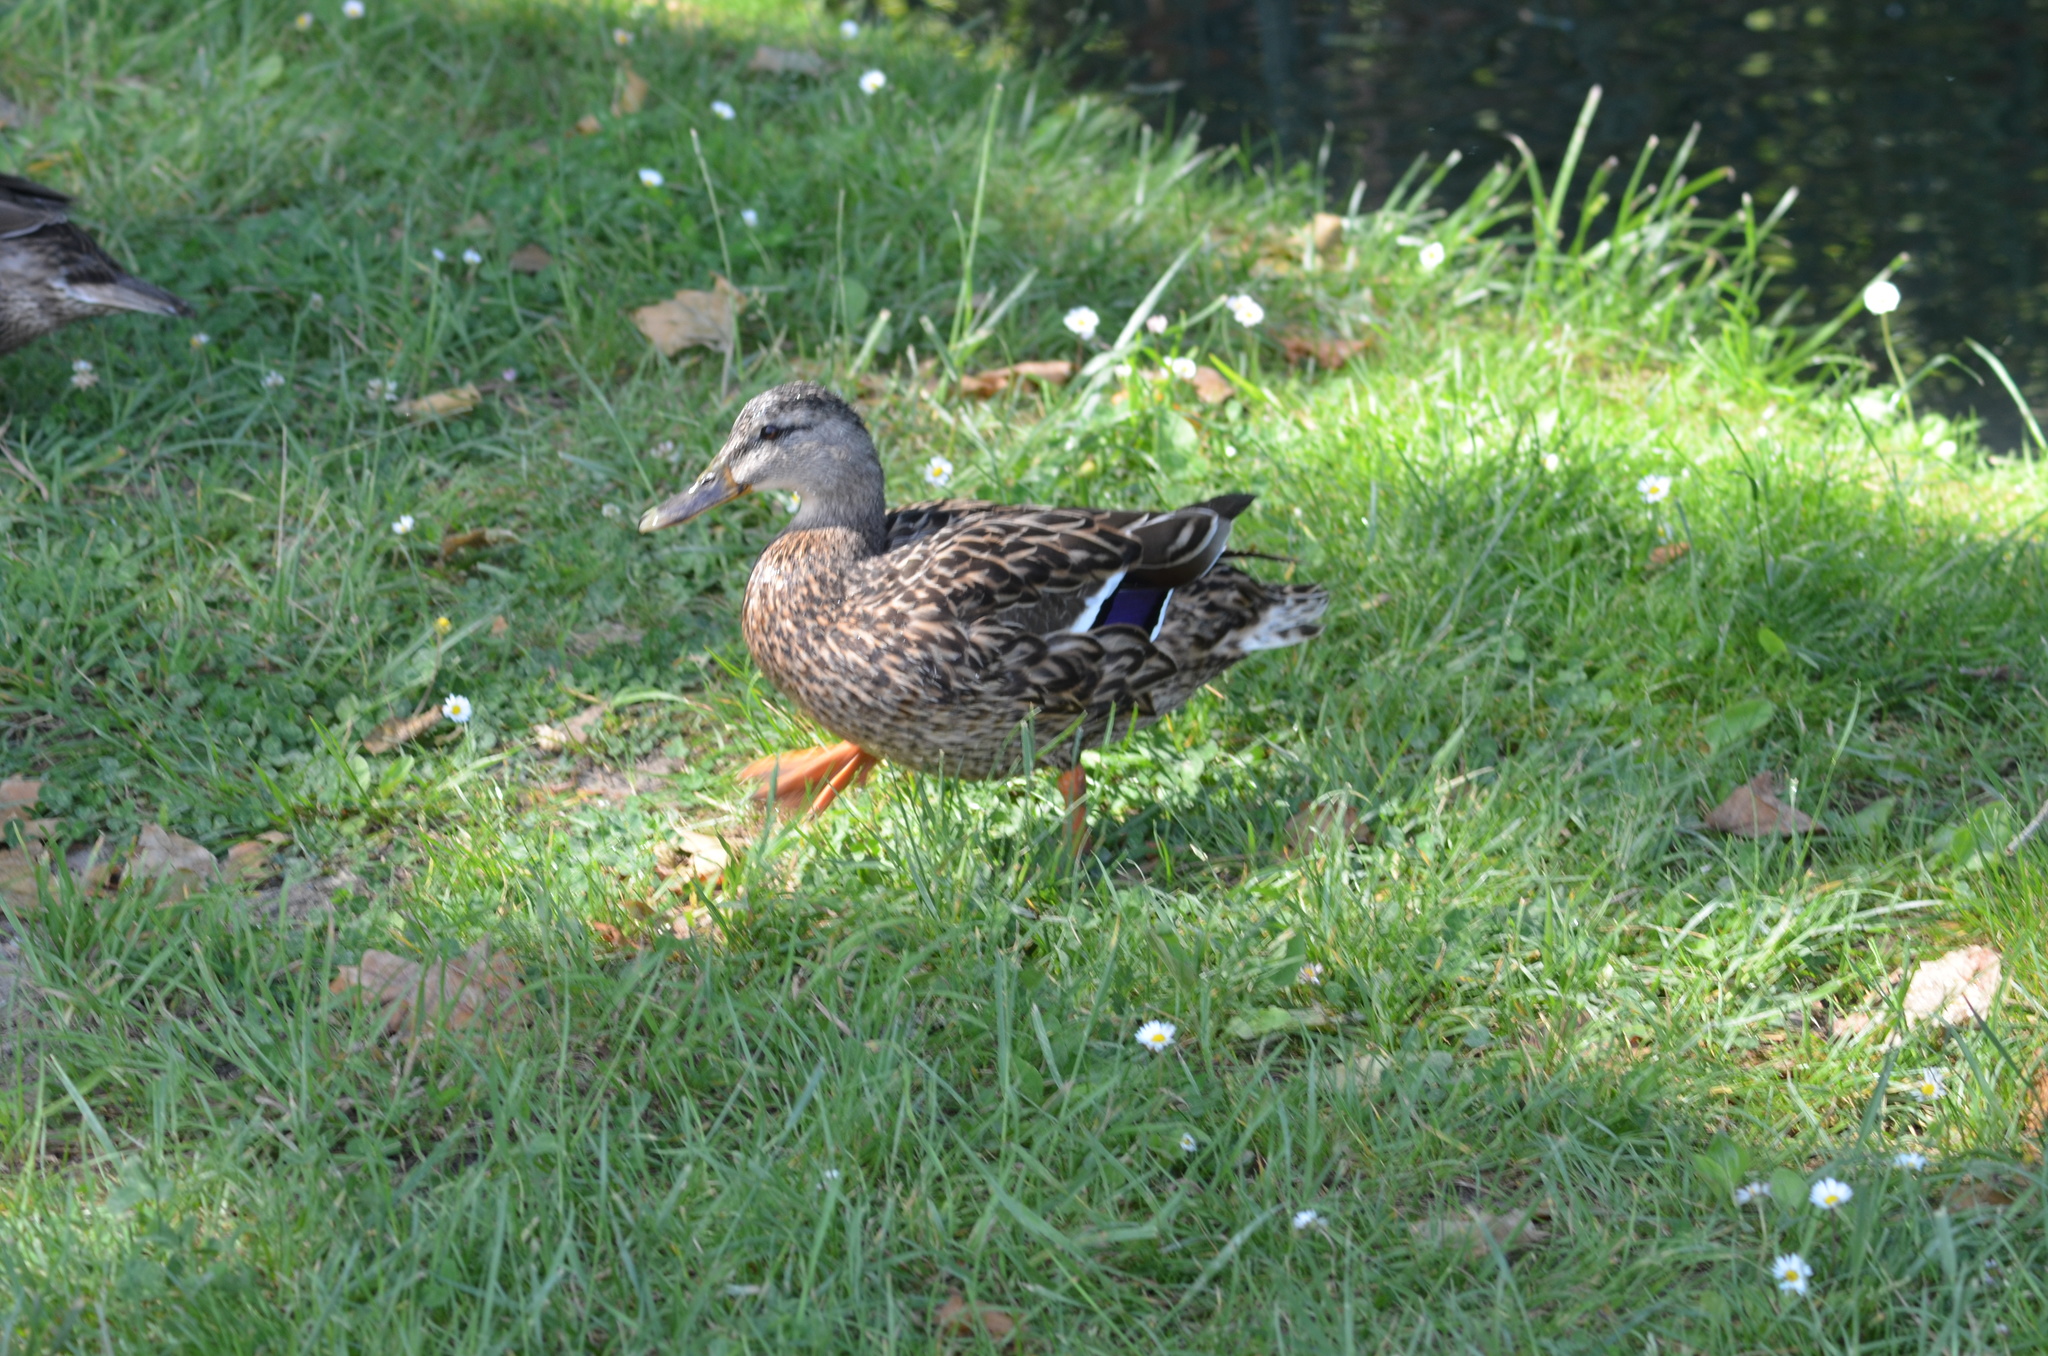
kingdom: Animalia
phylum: Chordata
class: Aves
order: Anseriformes
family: Anatidae
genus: Anas
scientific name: Anas platyrhynchos
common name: Mallard
